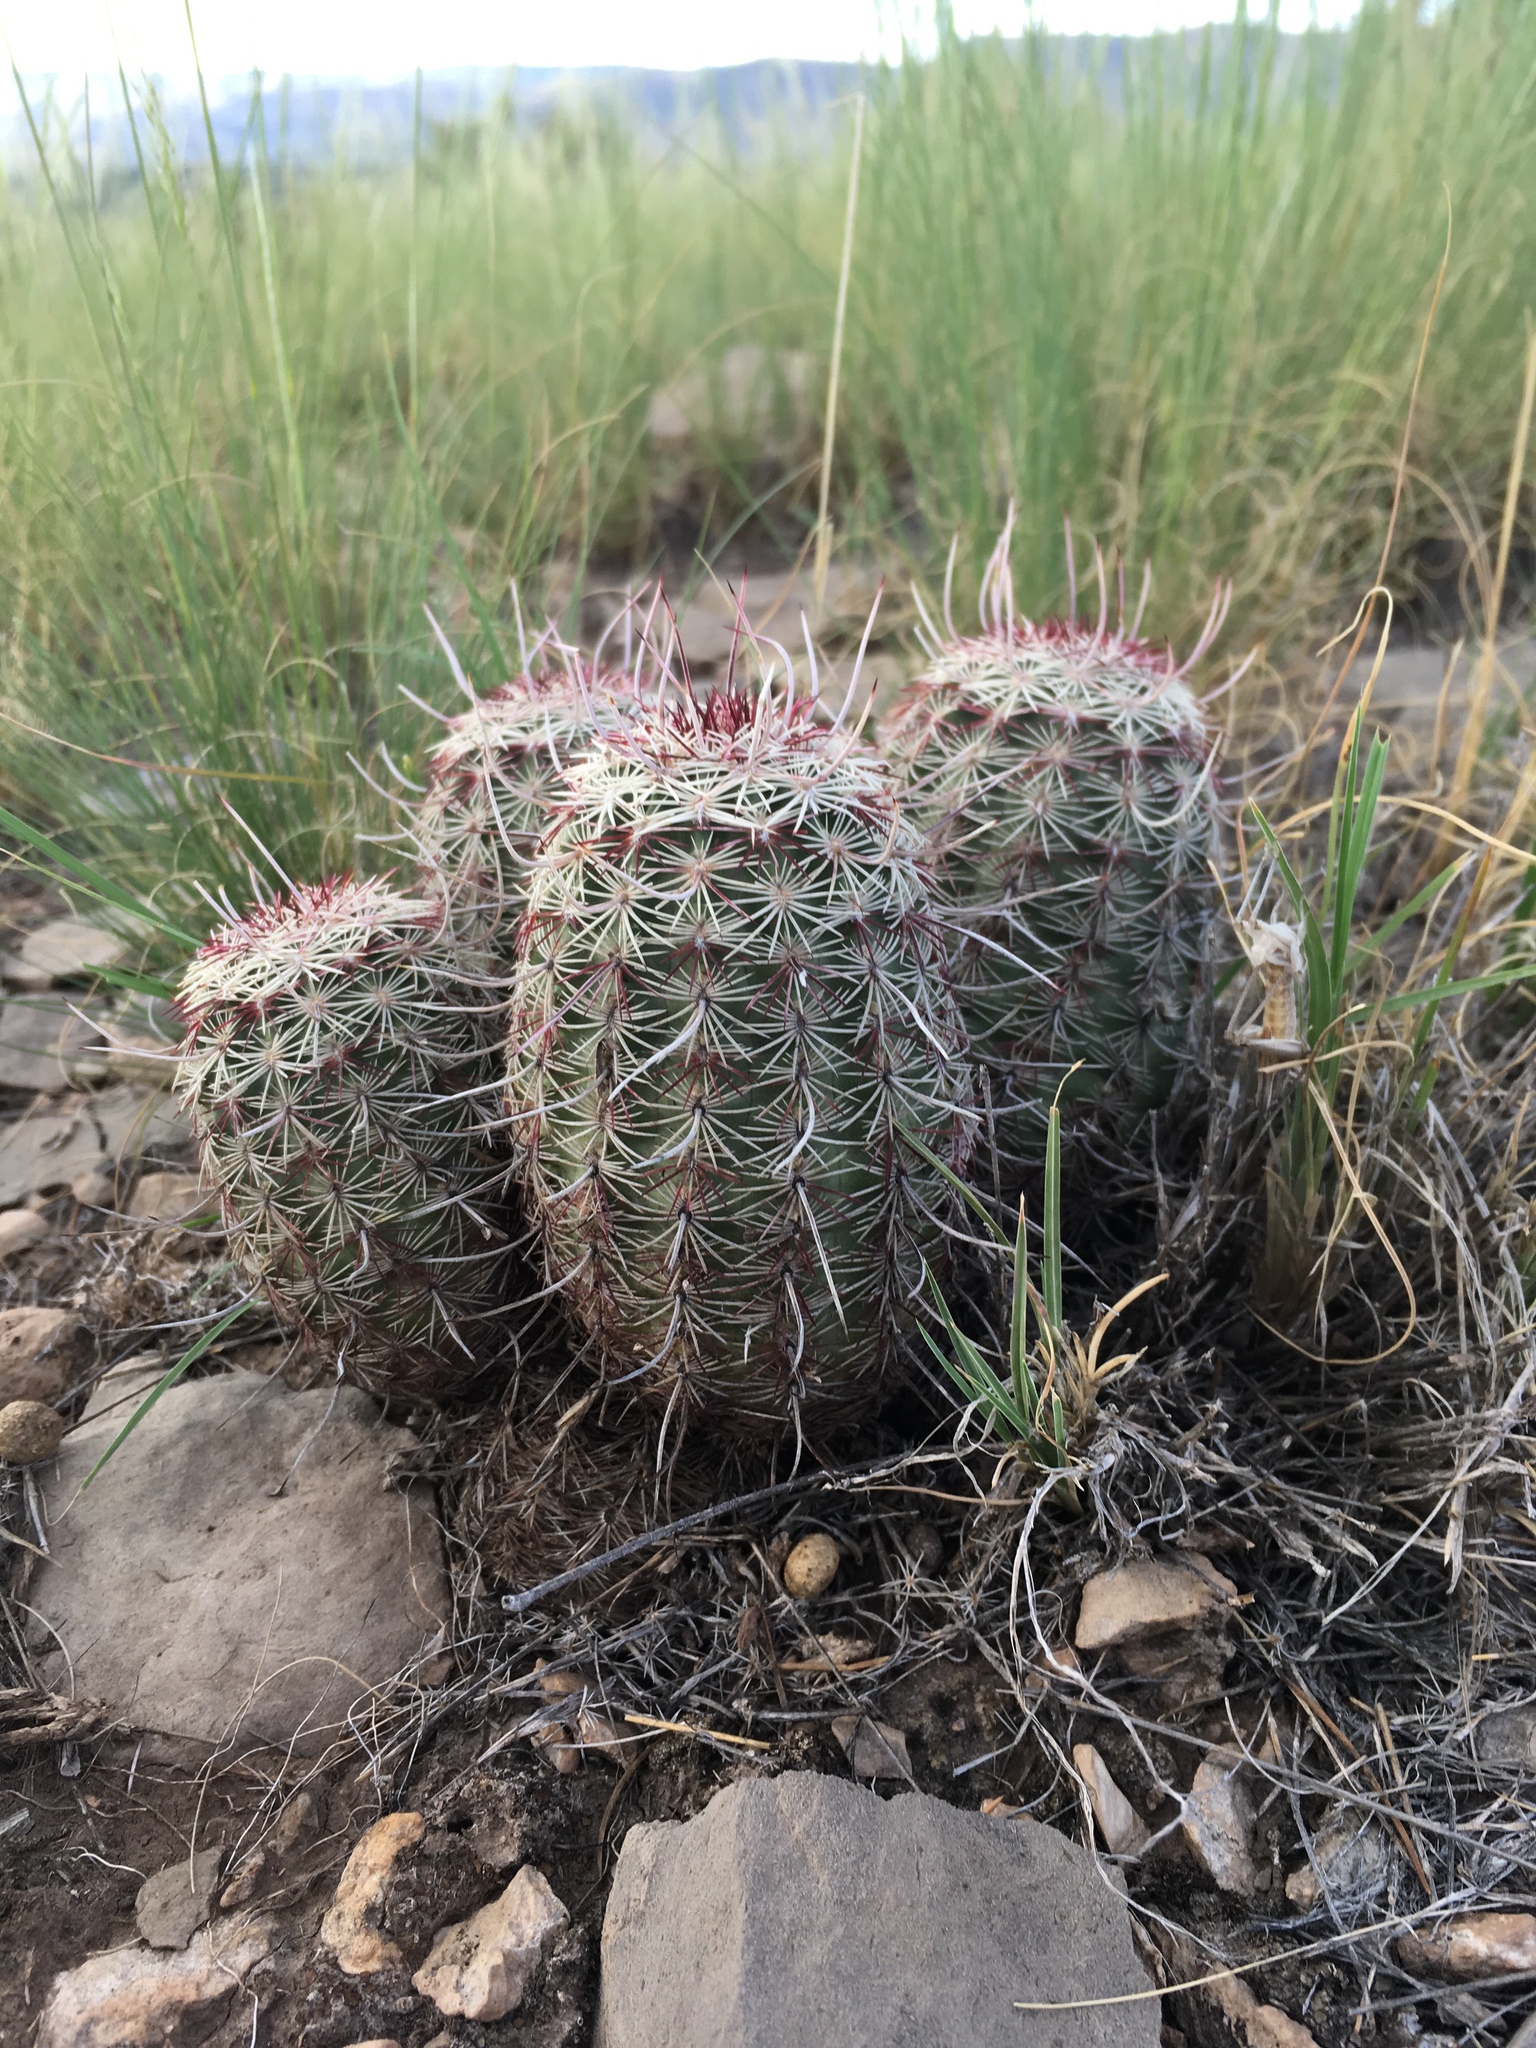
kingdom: Plantae
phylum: Tracheophyta
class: Magnoliopsida
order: Caryophyllales
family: Cactaceae
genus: Echinocereus
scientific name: Echinocereus viridiflorus
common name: Nylon hedgehog cactus
